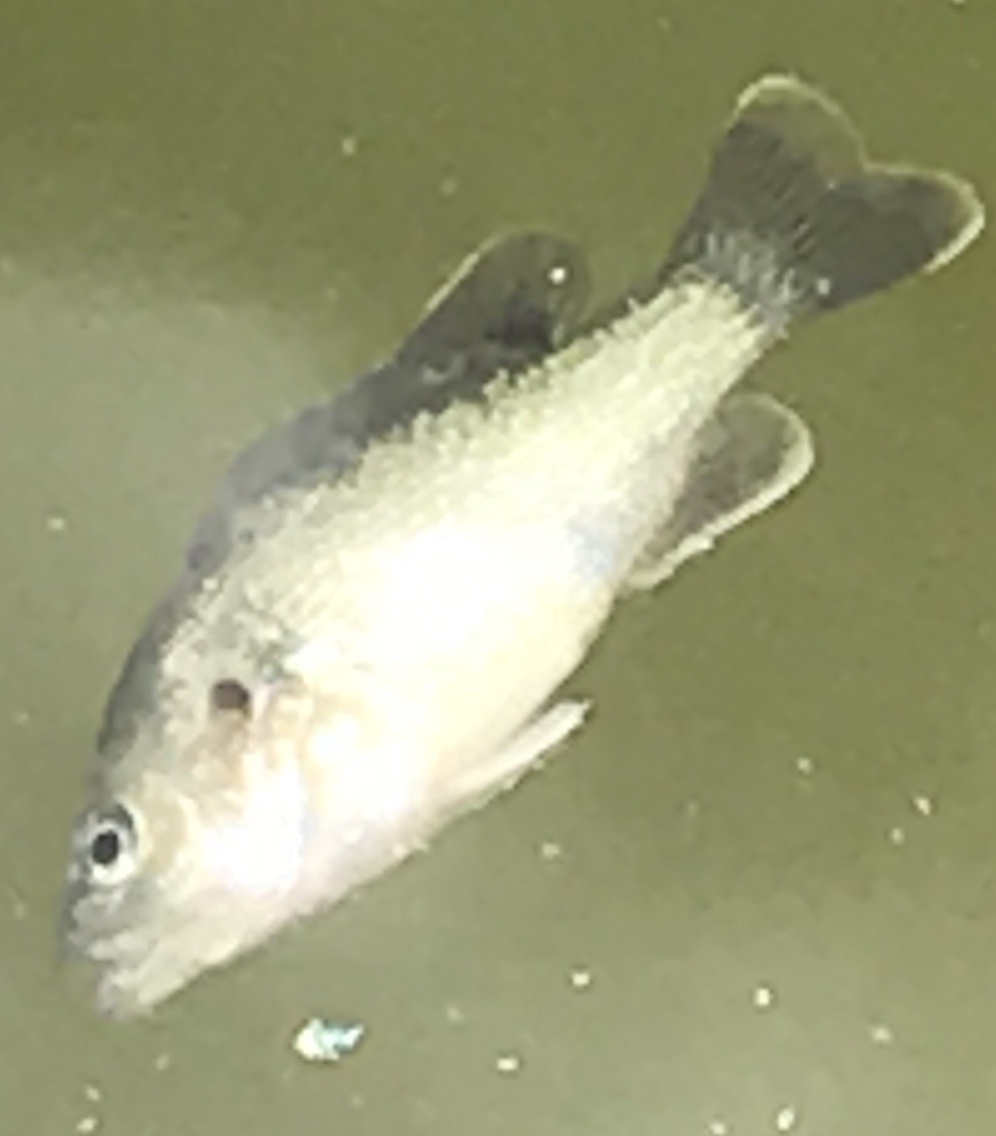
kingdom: Animalia
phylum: Chordata
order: Perciformes
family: Centrarchidae
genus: Lepomis
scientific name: Lepomis cyanellus
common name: Green sunfish
